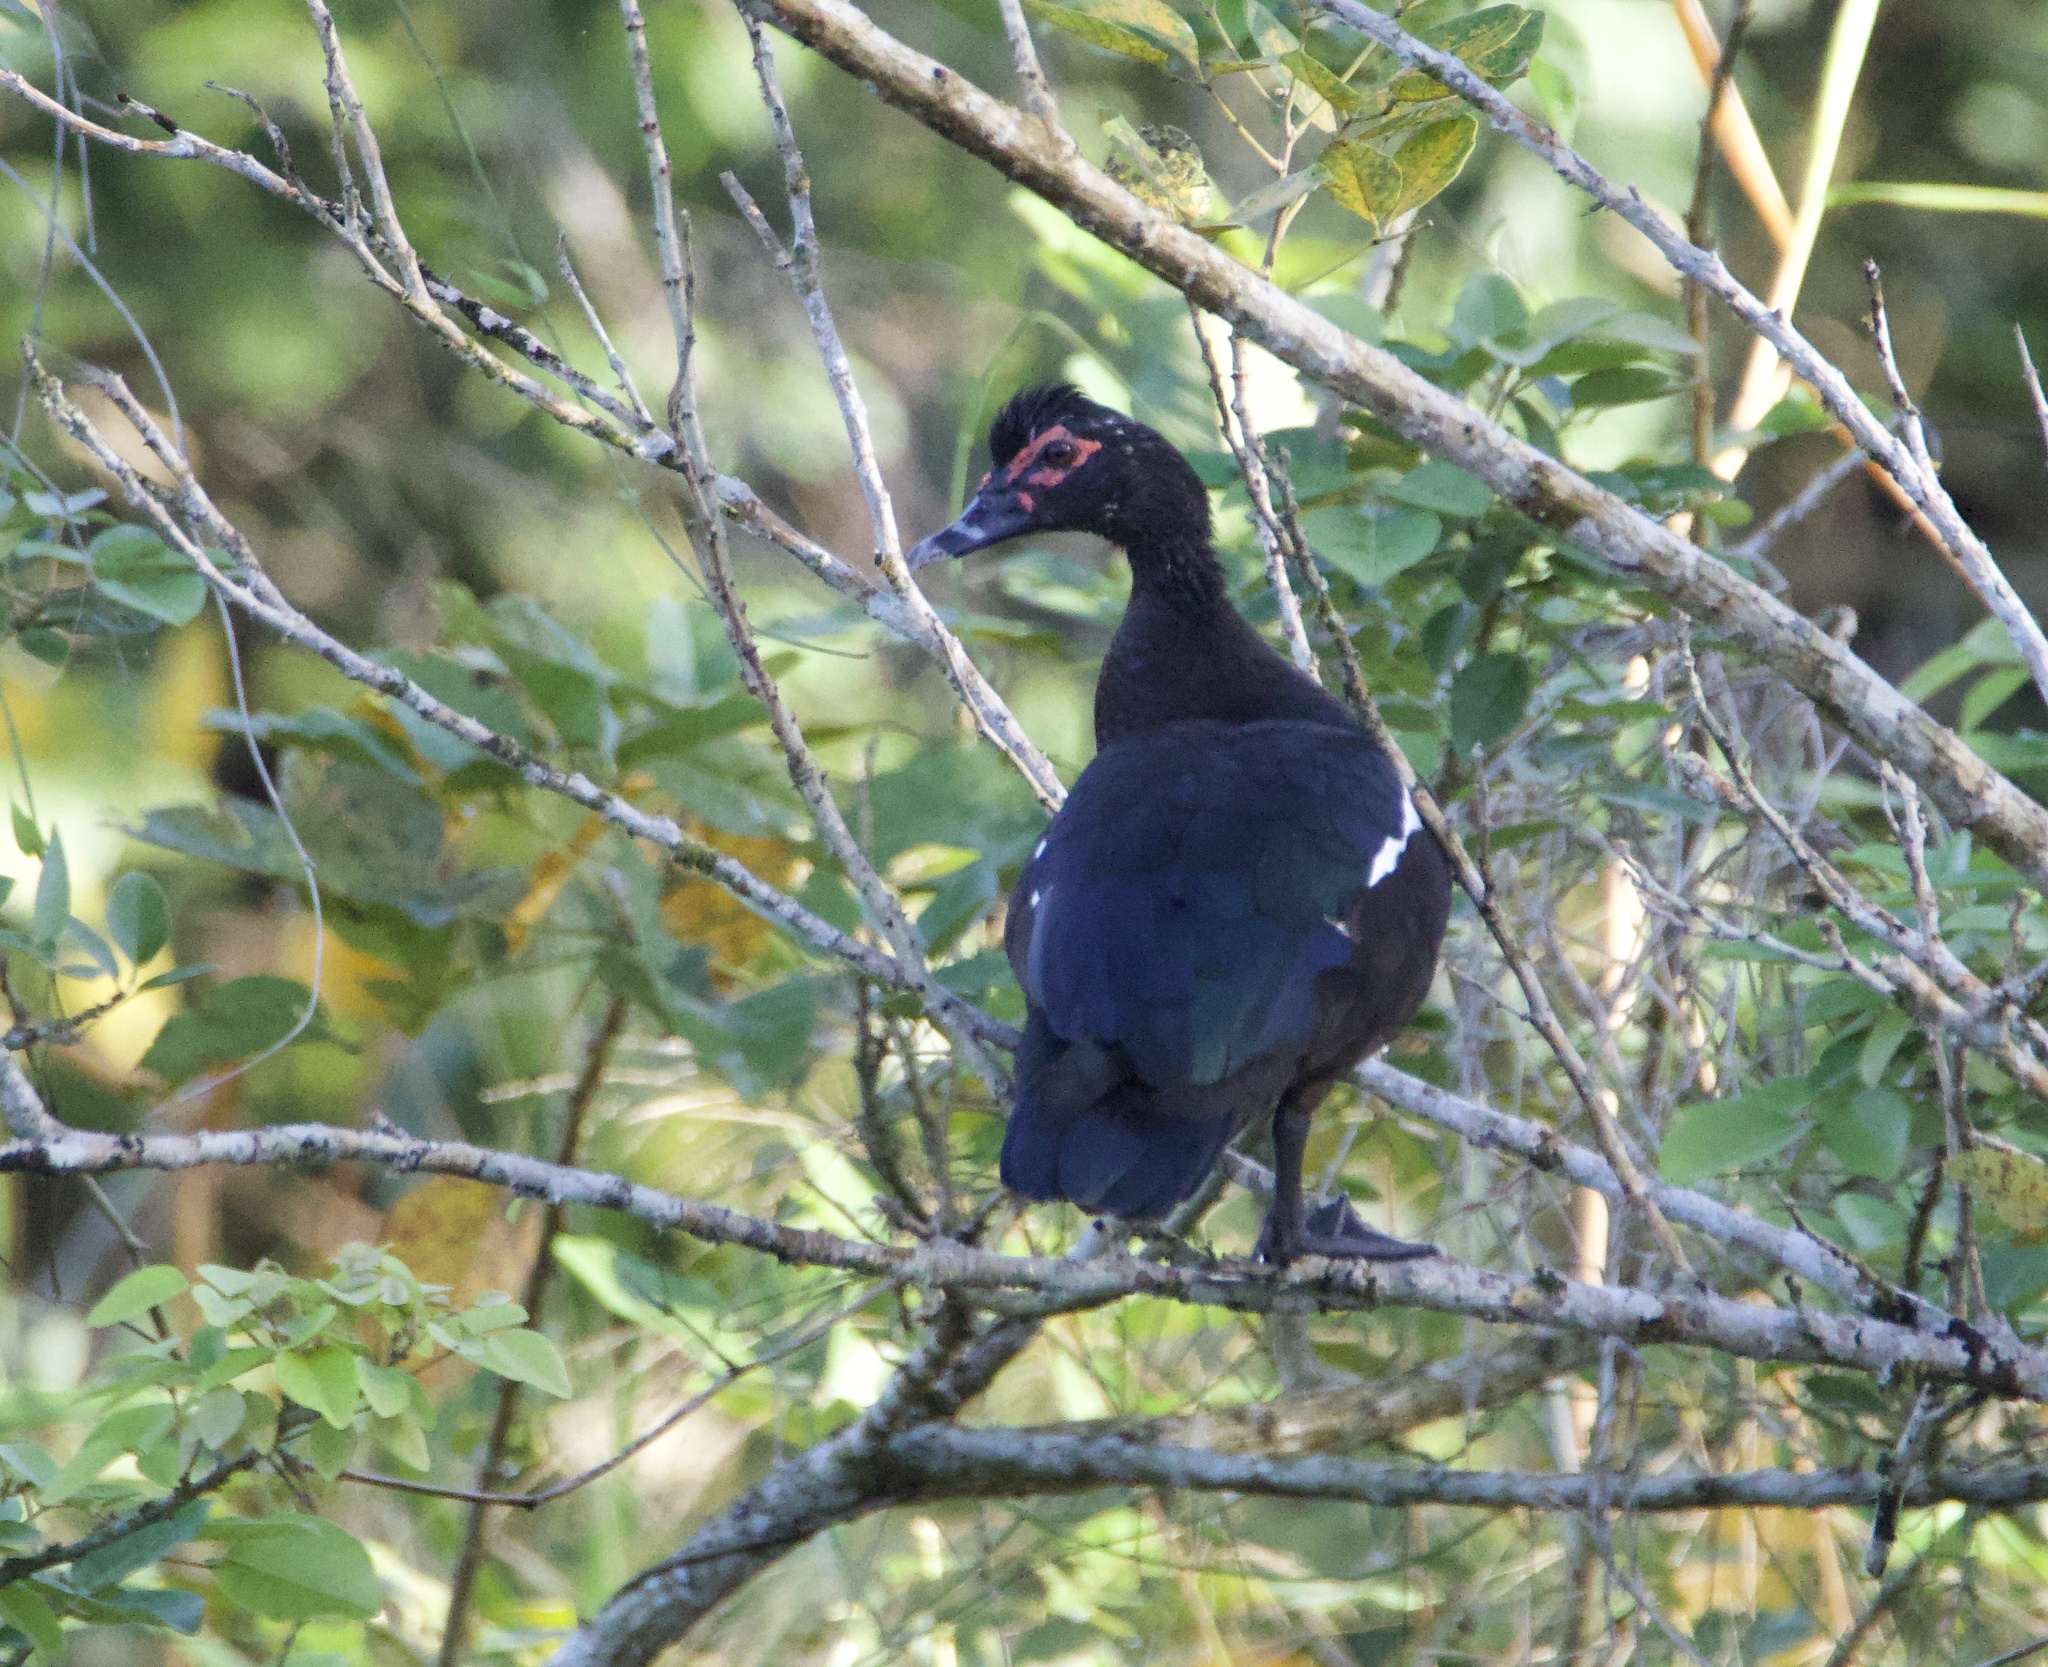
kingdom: Animalia
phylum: Chordata
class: Aves
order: Anseriformes
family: Anatidae
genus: Cairina
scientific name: Cairina moschata
